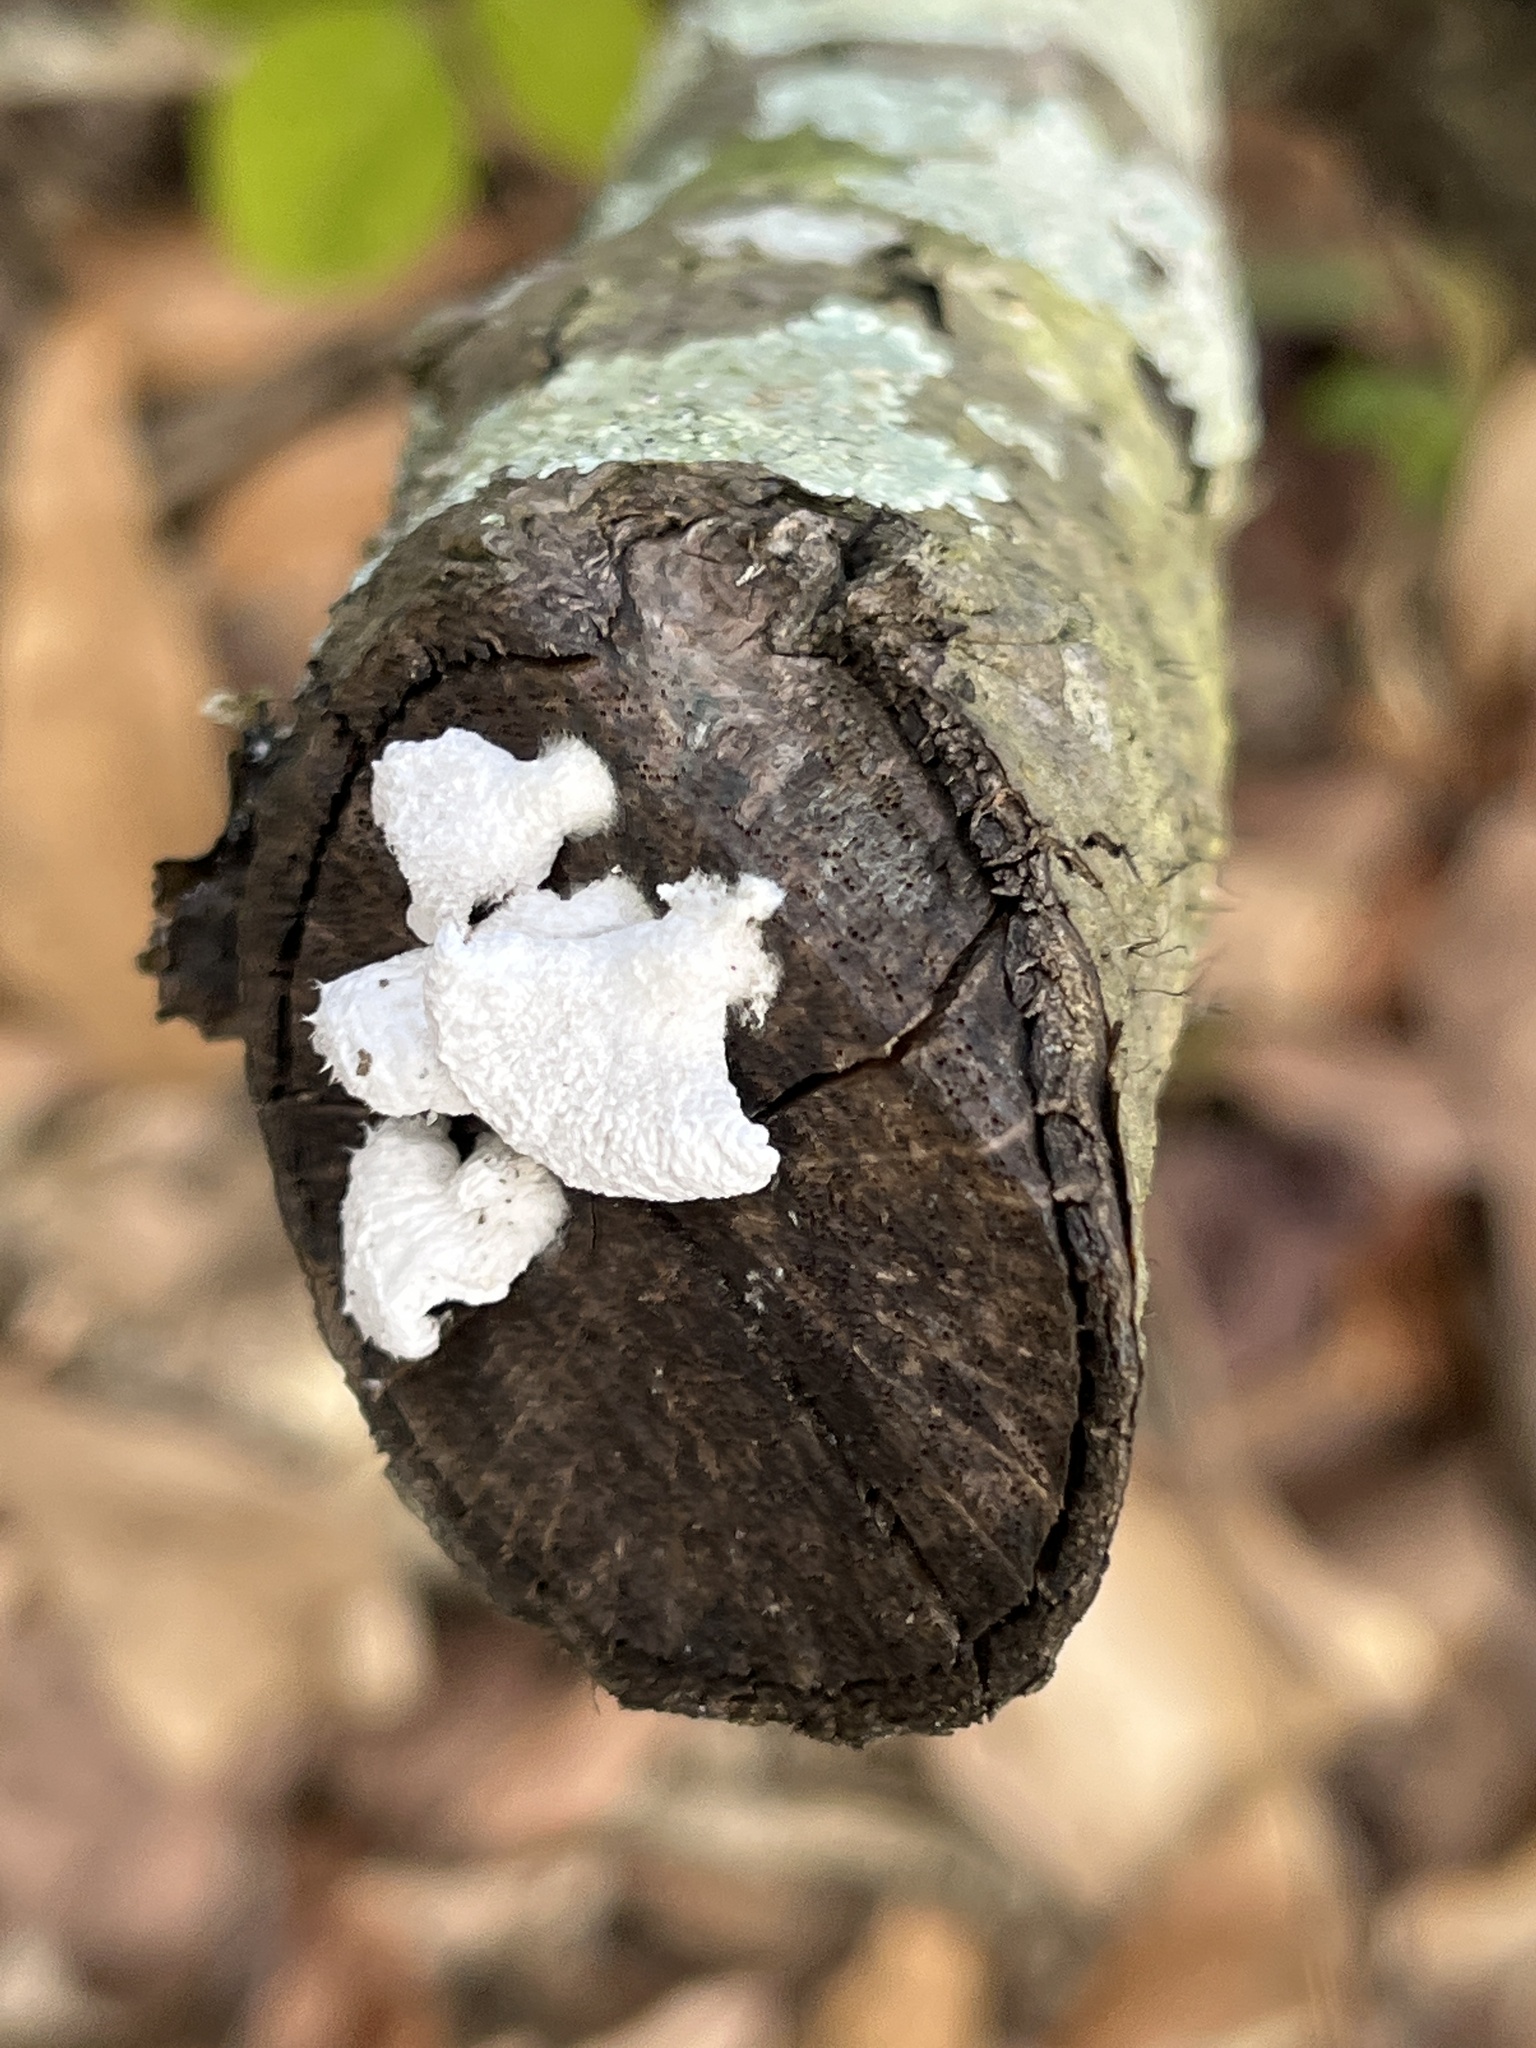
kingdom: Fungi
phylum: Basidiomycota
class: Agaricomycetes
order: Agaricales
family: Schizophyllaceae
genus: Schizophyllum
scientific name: Schizophyllum commune
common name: Common porecrust
